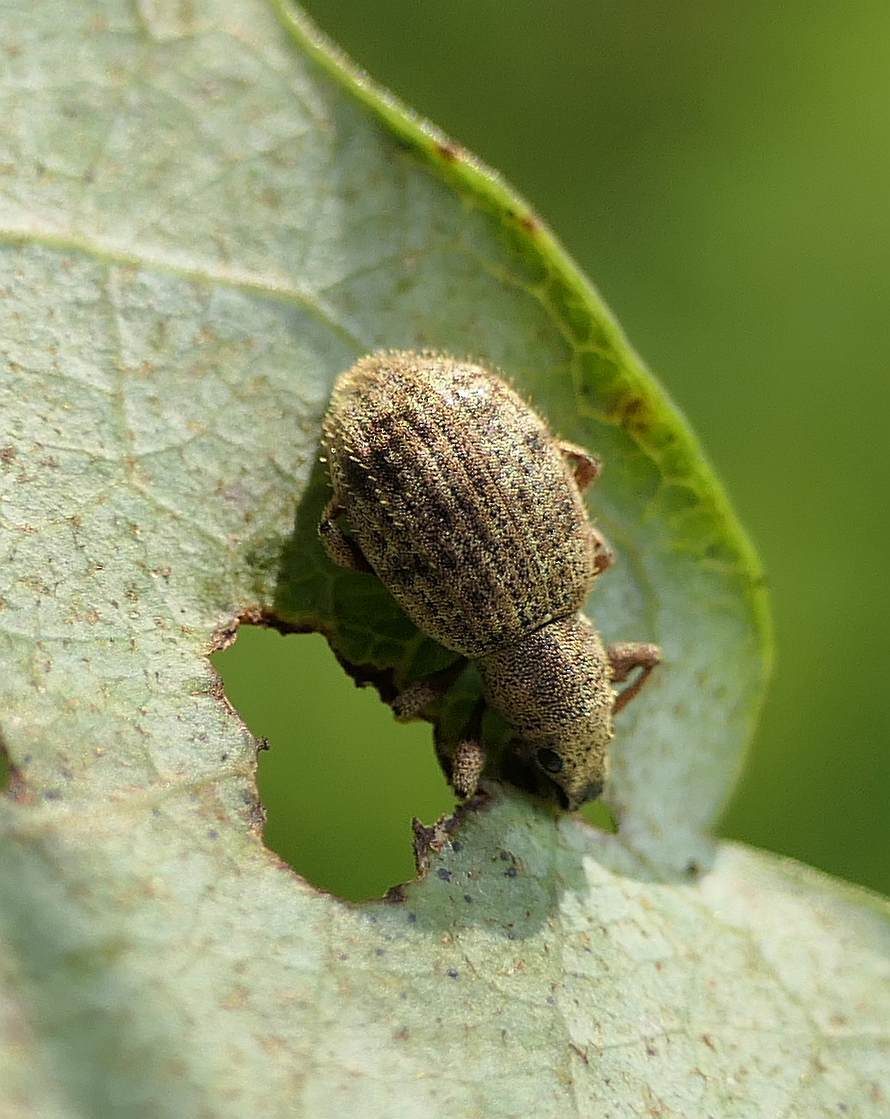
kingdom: Animalia
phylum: Arthropoda
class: Insecta
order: Coleoptera
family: Curculionidae
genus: Sciaphilus
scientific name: Sciaphilus asperatus
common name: Weevil
